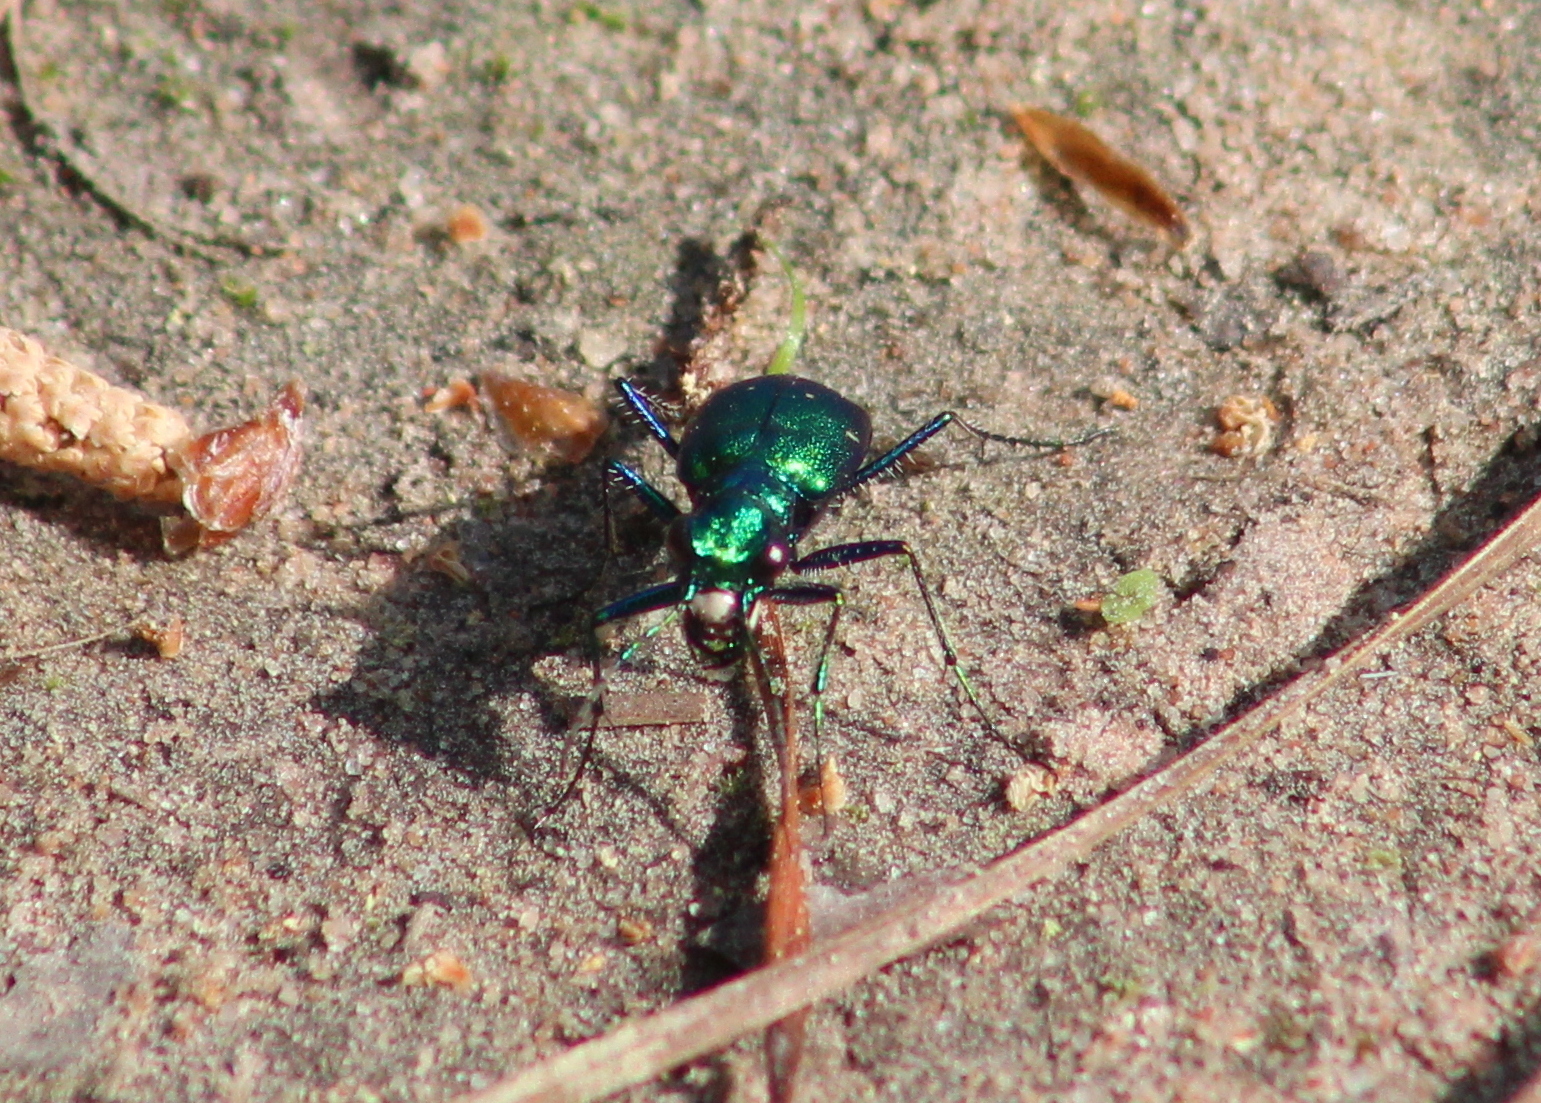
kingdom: Animalia
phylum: Arthropoda
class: Insecta
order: Coleoptera
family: Carabidae
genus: Cicindela
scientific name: Cicindela sexguttata
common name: Six-spotted tiger beetle
